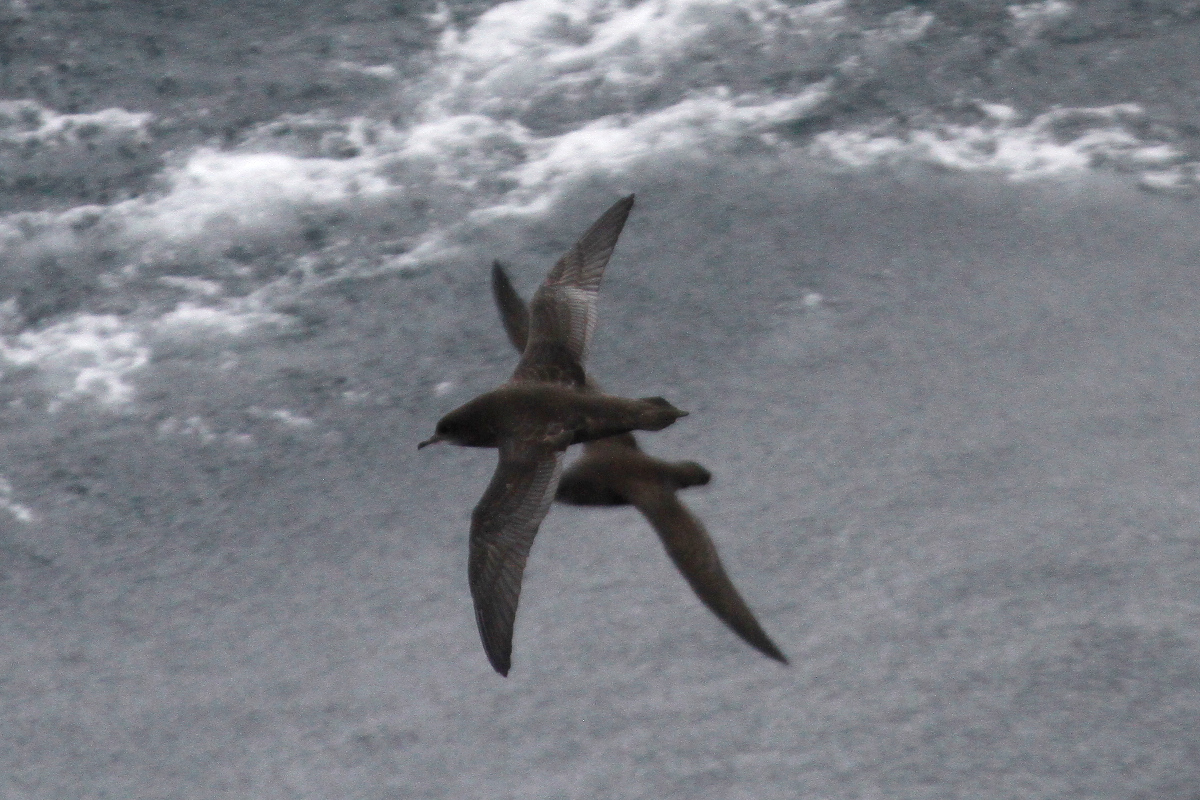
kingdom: Animalia
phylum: Chordata
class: Aves
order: Procellariiformes
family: Procellariidae
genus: Puffinus
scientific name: Puffinus tenuirostris
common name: Short-tailed shearwater
